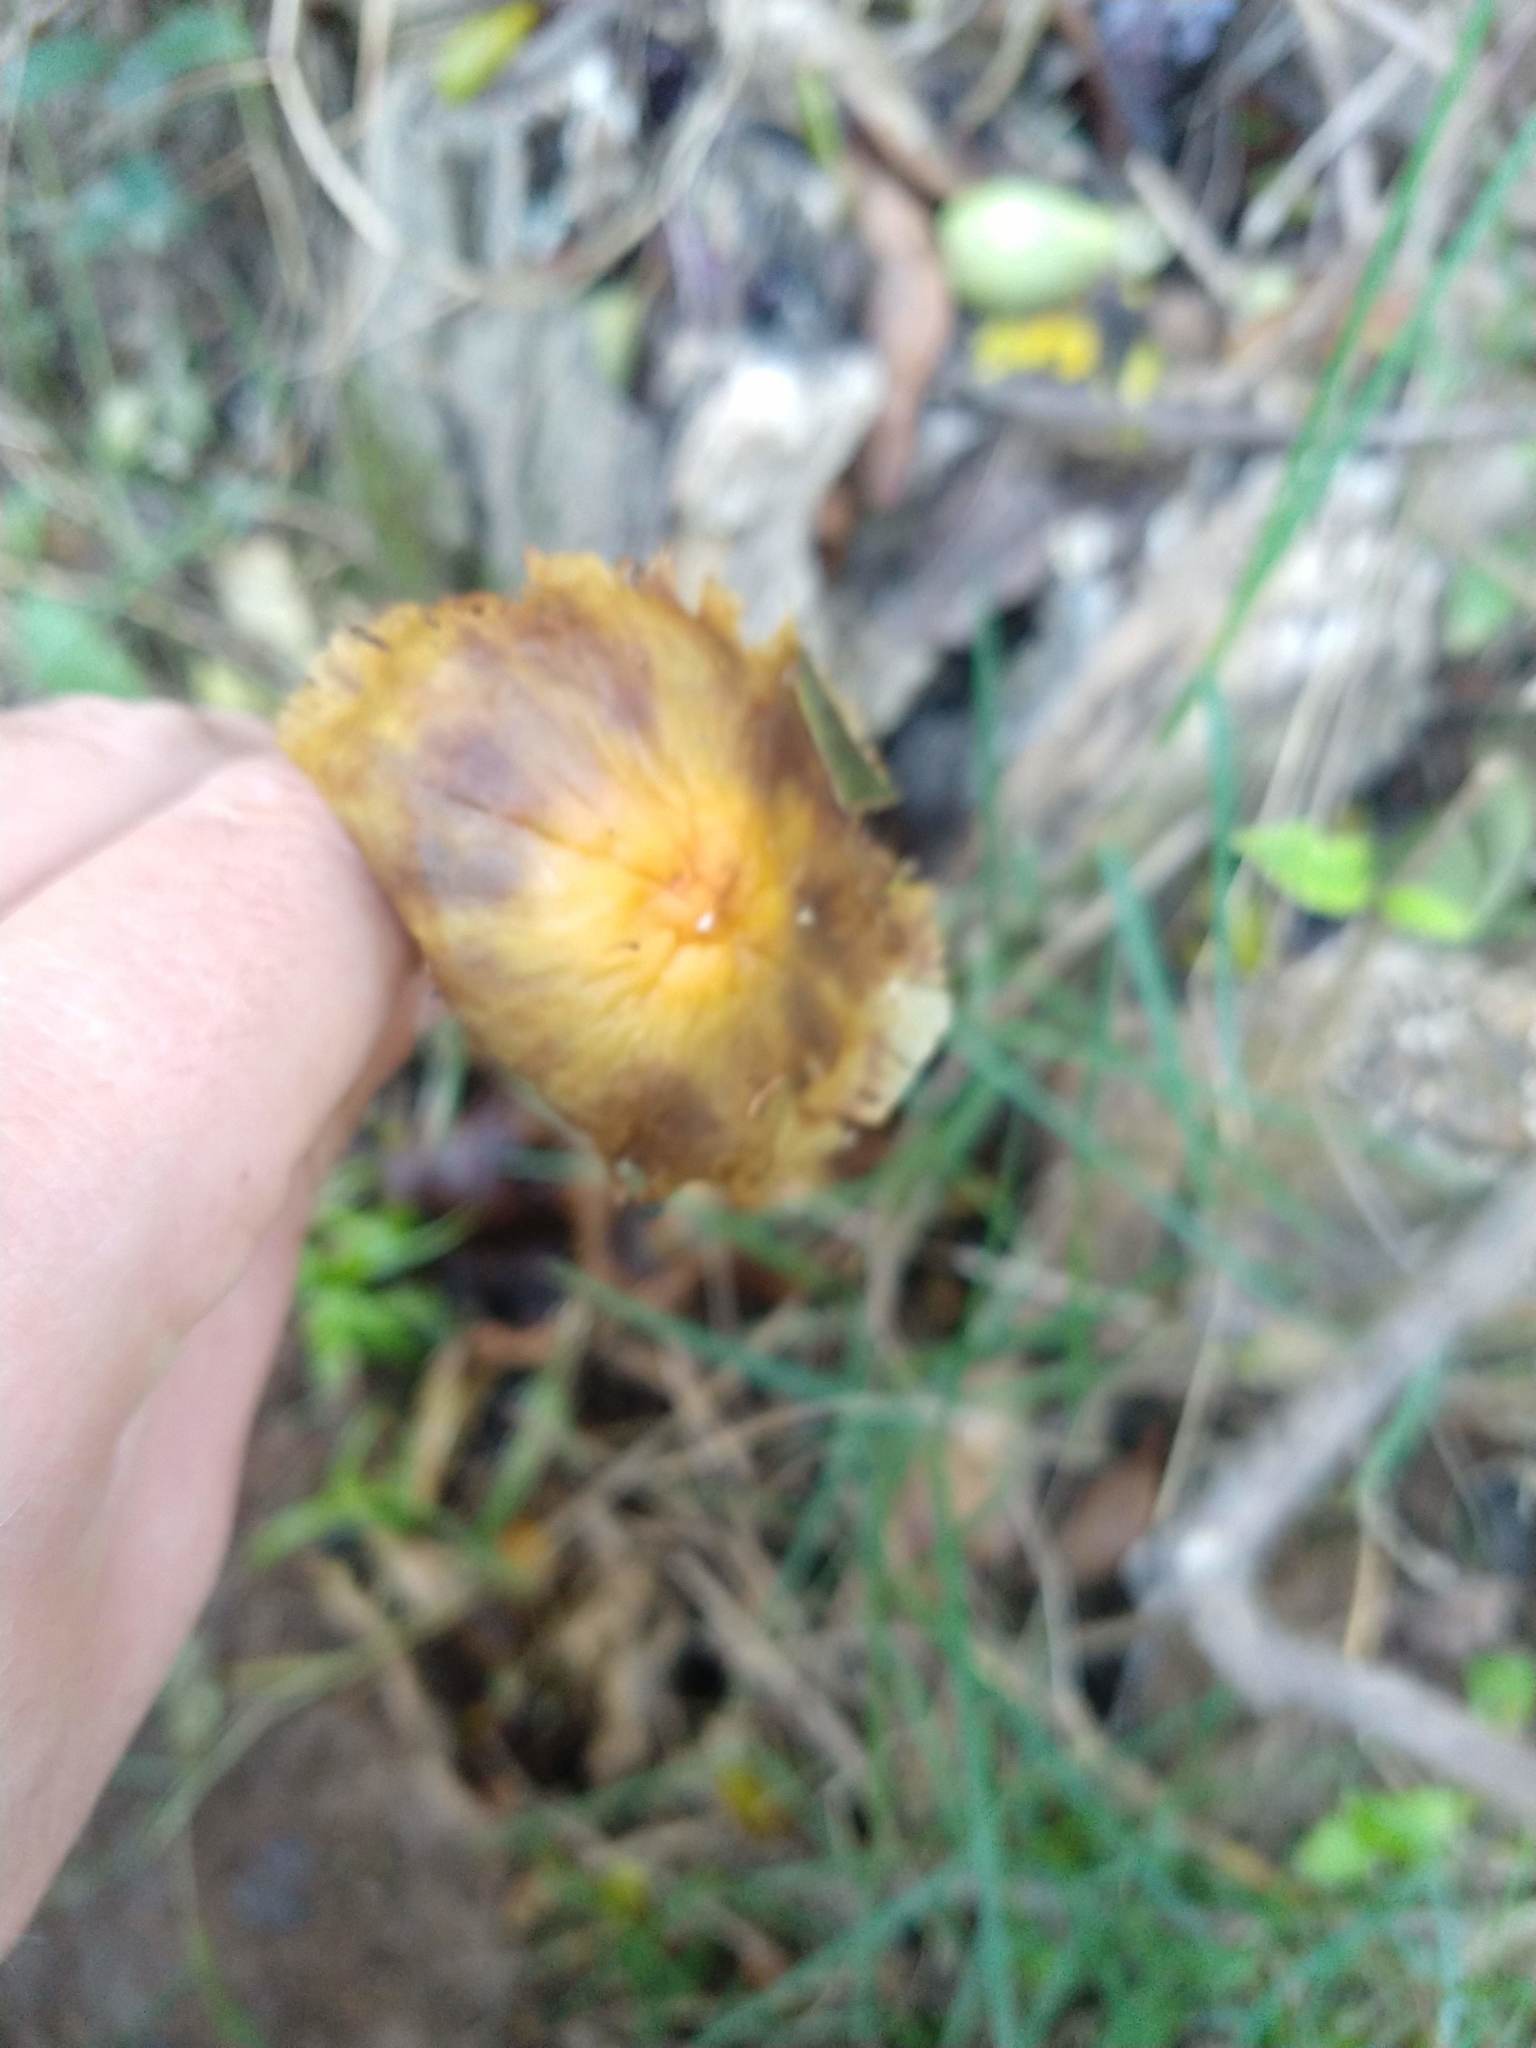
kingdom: Fungi
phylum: Basidiomycota
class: Agaricomycetes
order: Agaricales
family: Strophariaceae
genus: Hypholoma
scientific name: Hypholoma fasciculare
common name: Sulphur tuft
